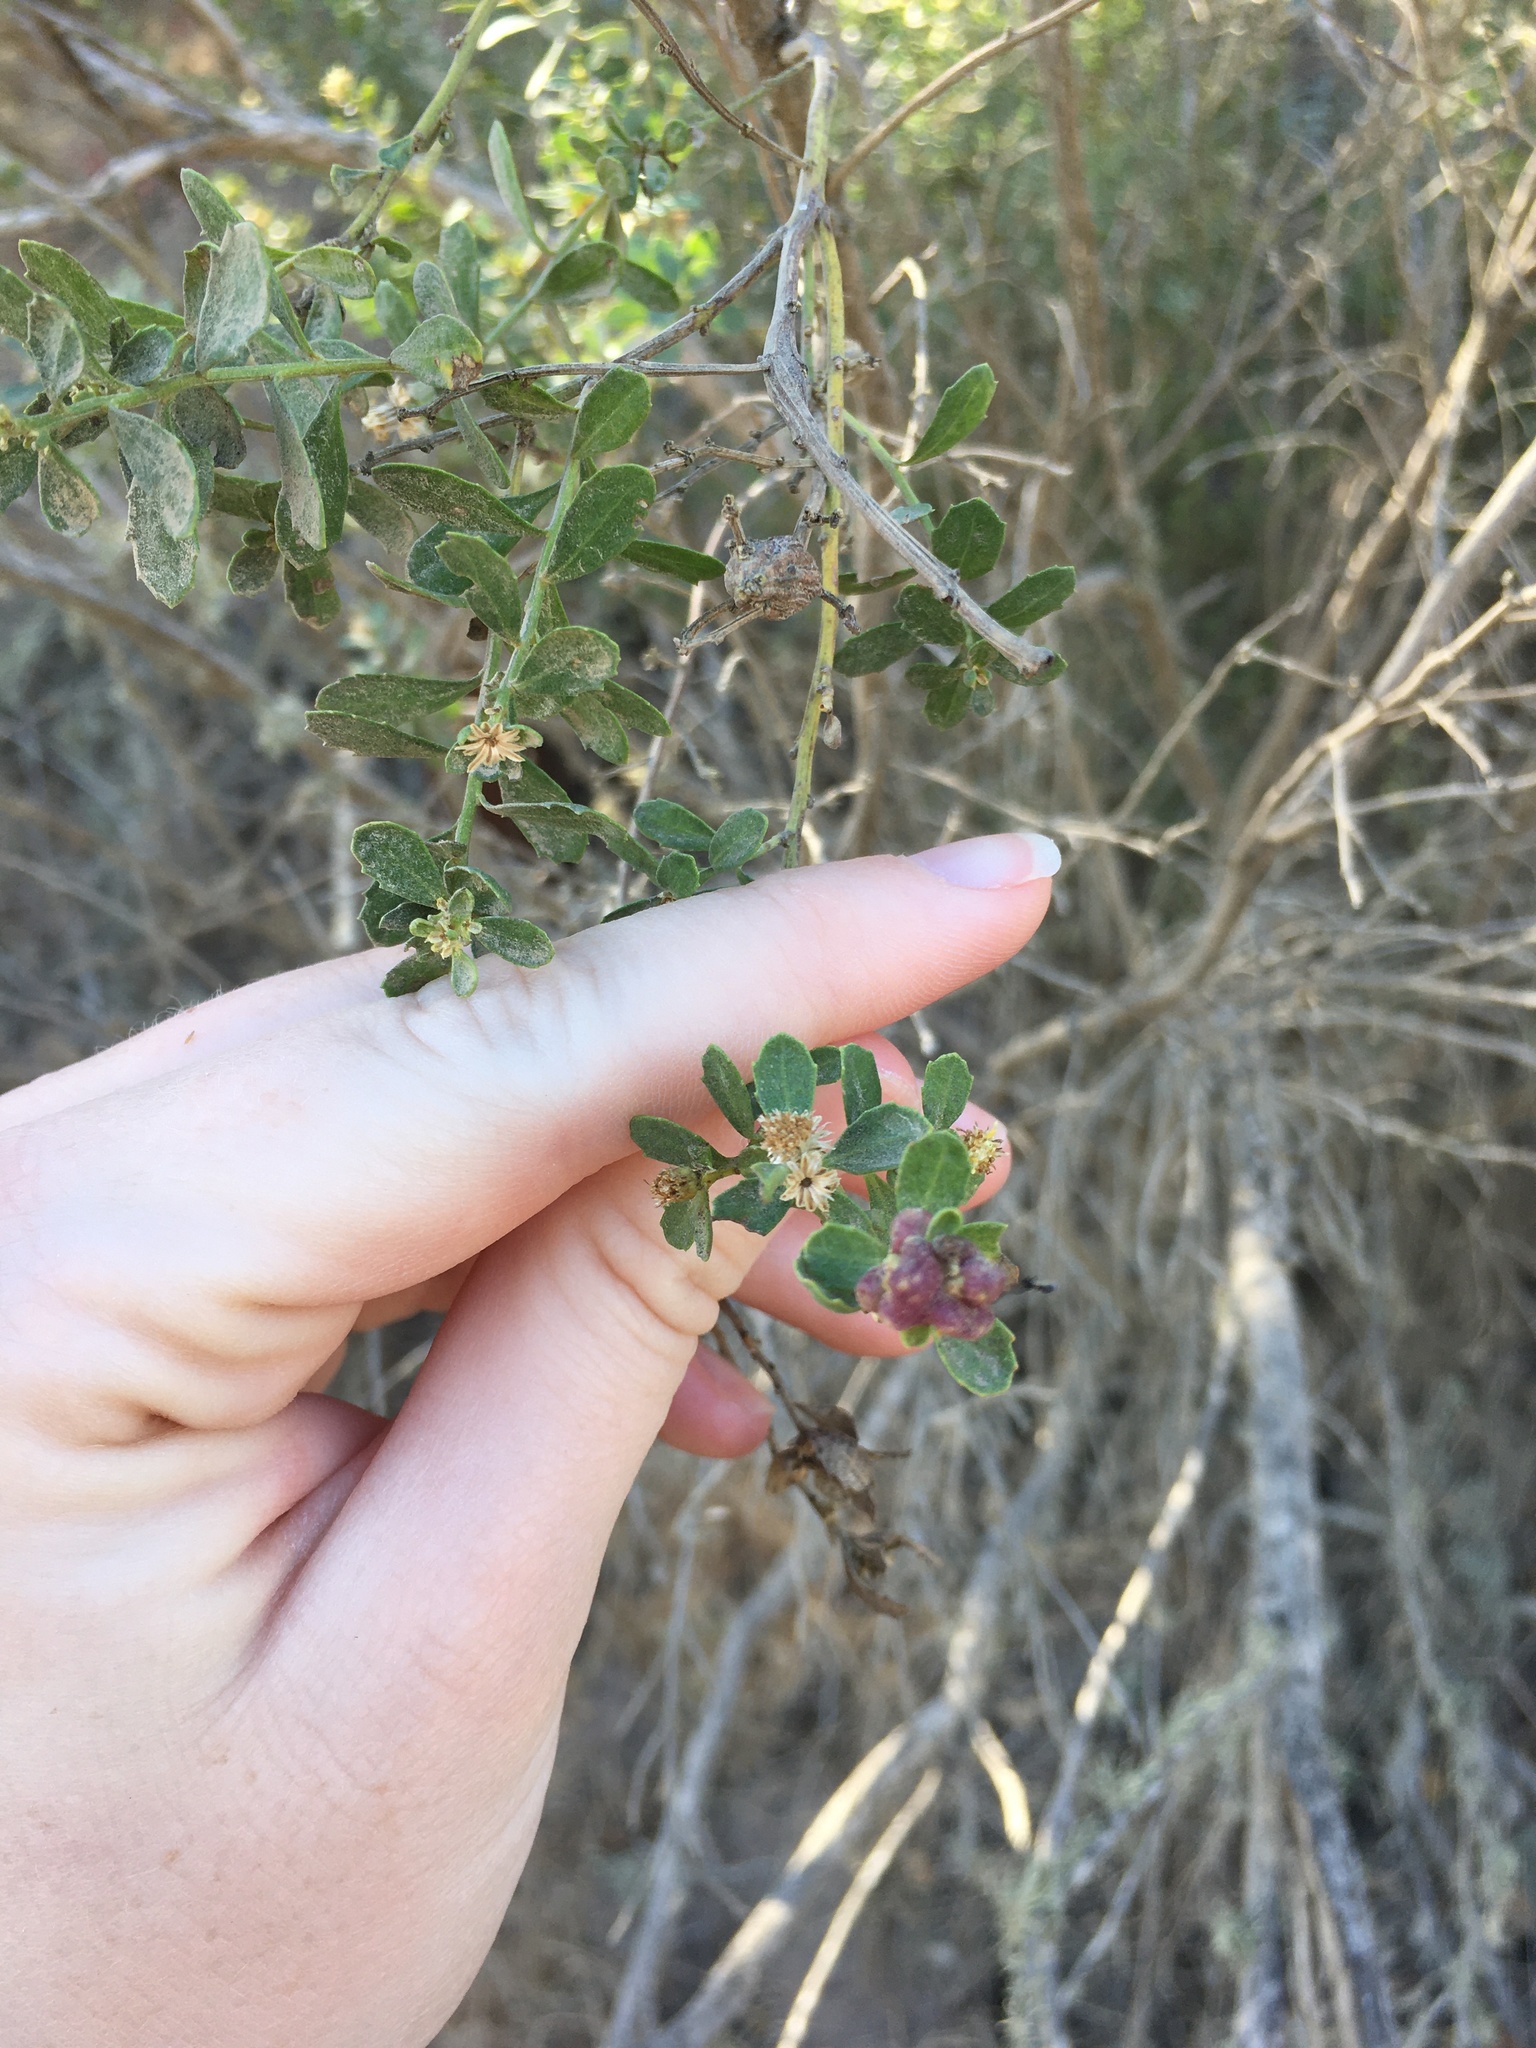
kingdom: Animalia
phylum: Arthropoda
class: Insecta
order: Diptera
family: Cecidomyiidae
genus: Rhopalomyia
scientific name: Rhopalomyia californica
